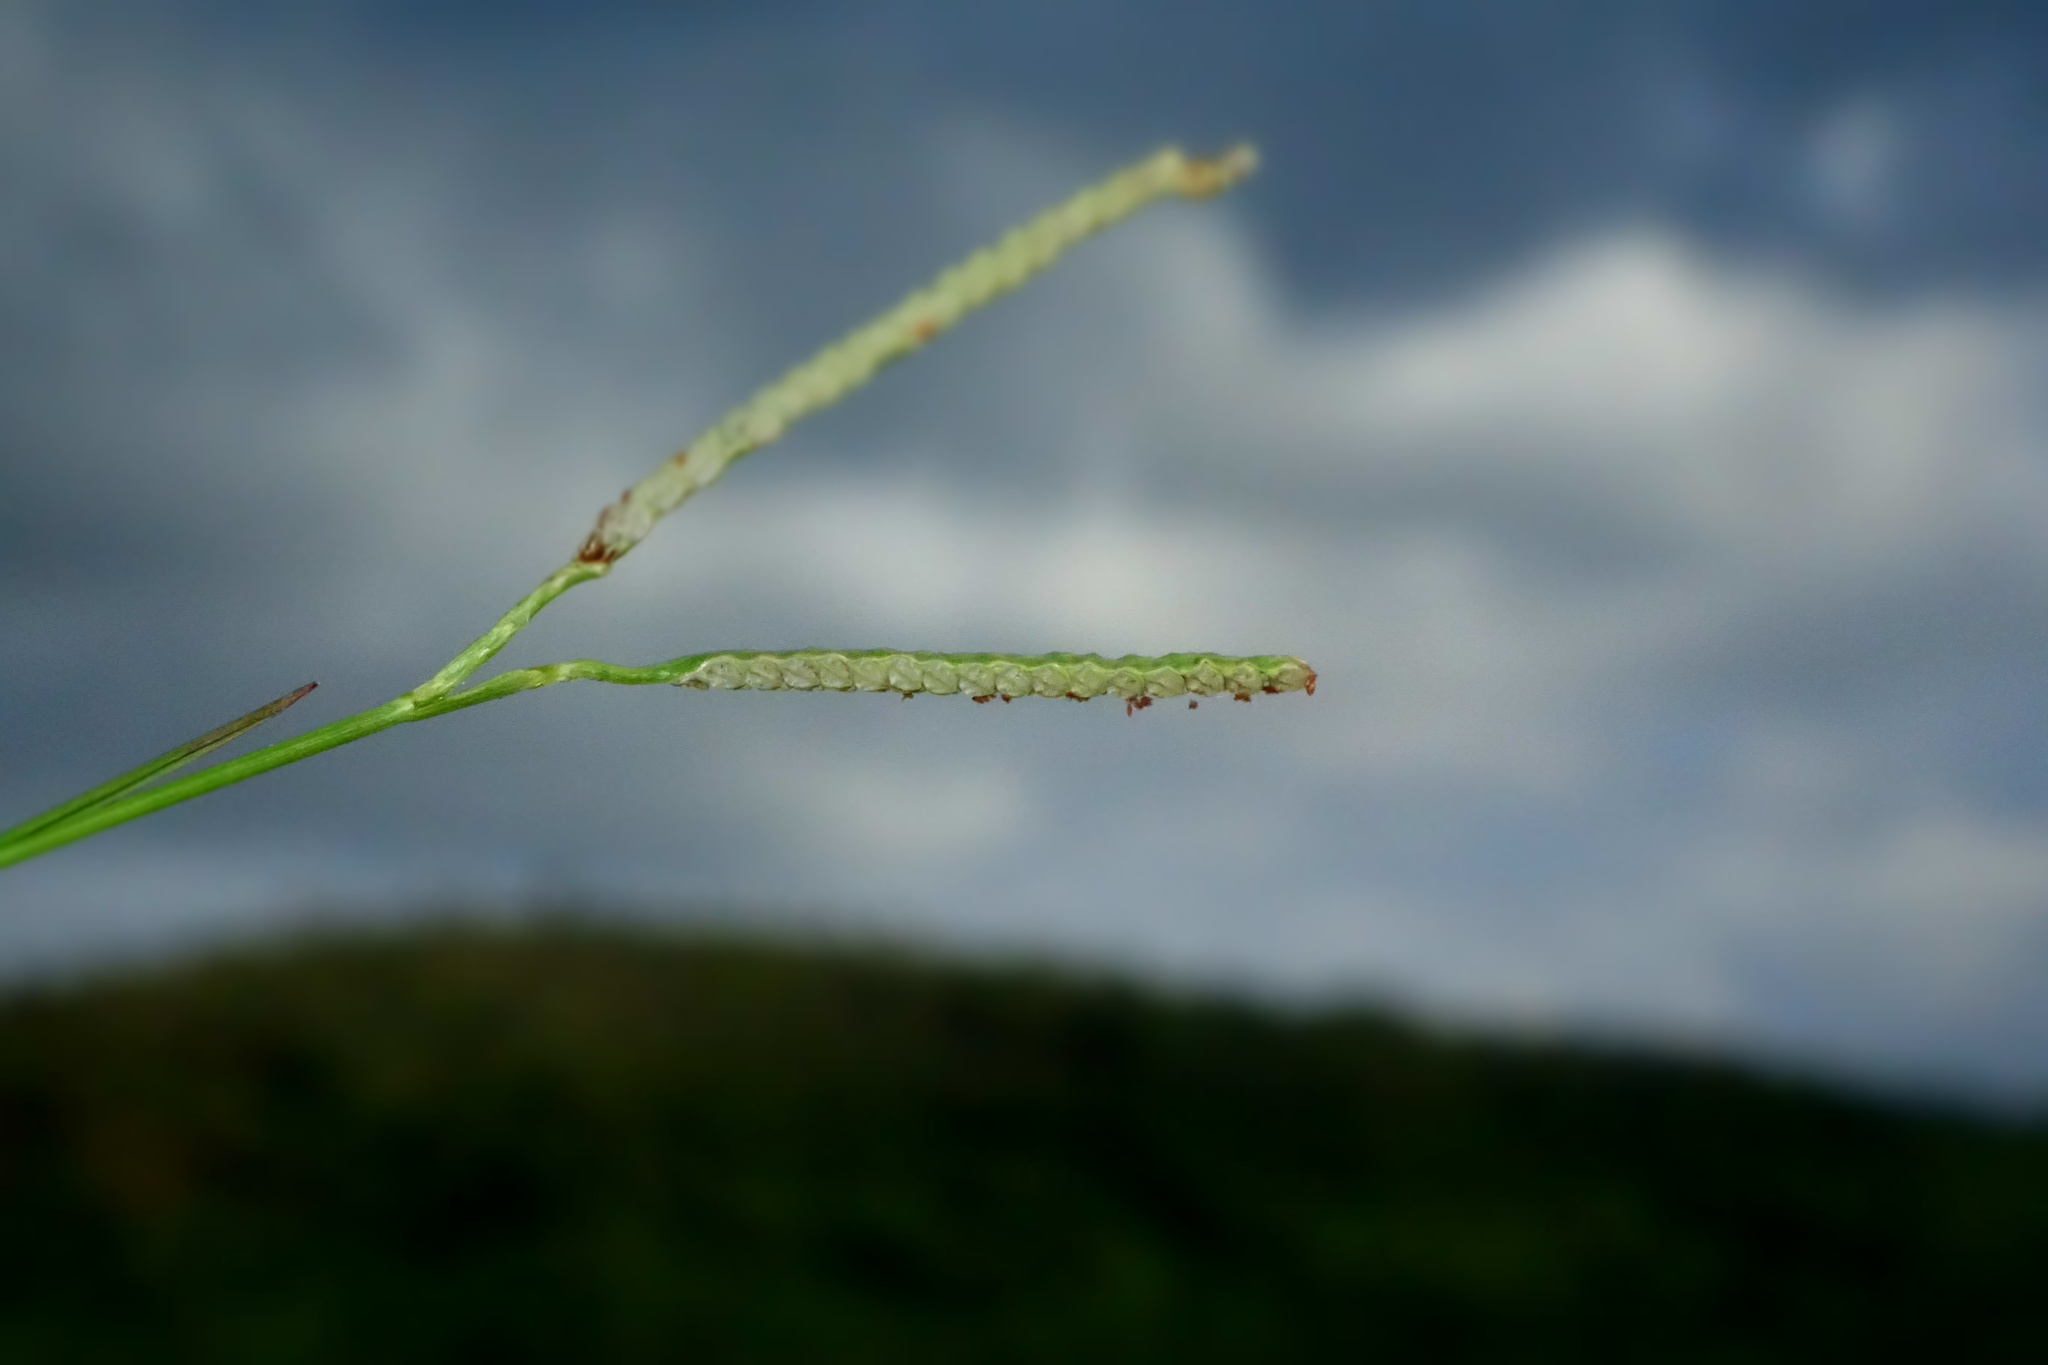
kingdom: Plantae
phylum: Tracheophyta
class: Liliopsida
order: Poales
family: Poaceae
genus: Paspalum
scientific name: Paspalum scrobiculatum
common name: Kodo millet
